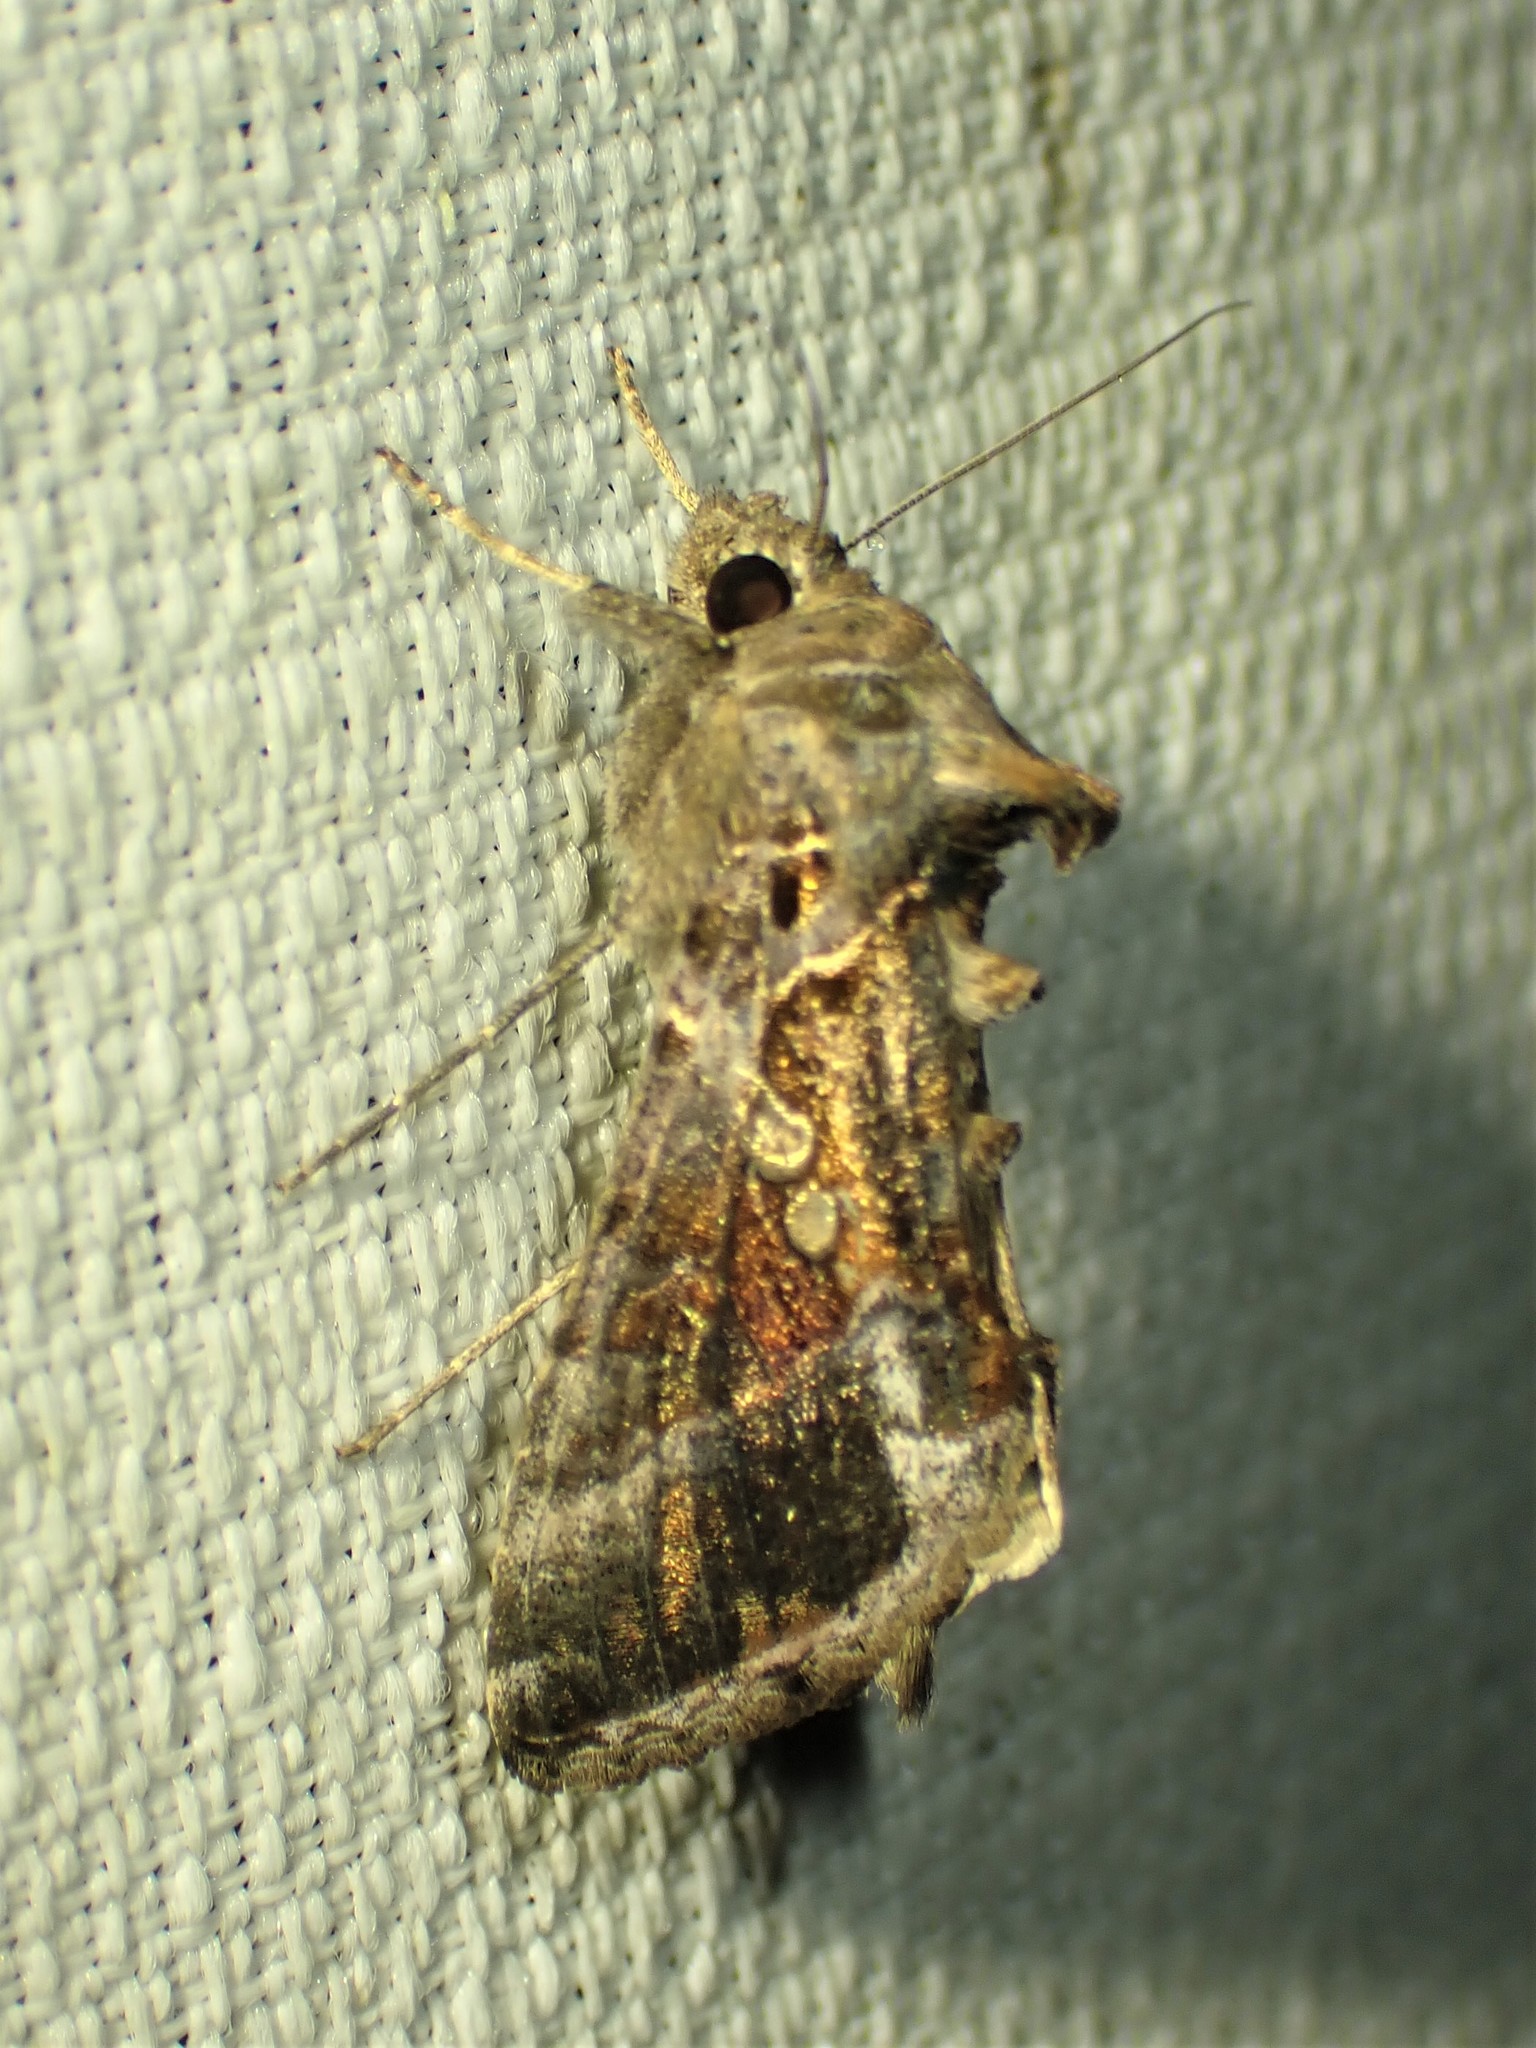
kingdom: Animalia
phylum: Arthropoda
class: Insecta
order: Lepidoptera
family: Noctuidae
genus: Chrysodeixis
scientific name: Chrysodeixis includens
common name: Cutworm moth
